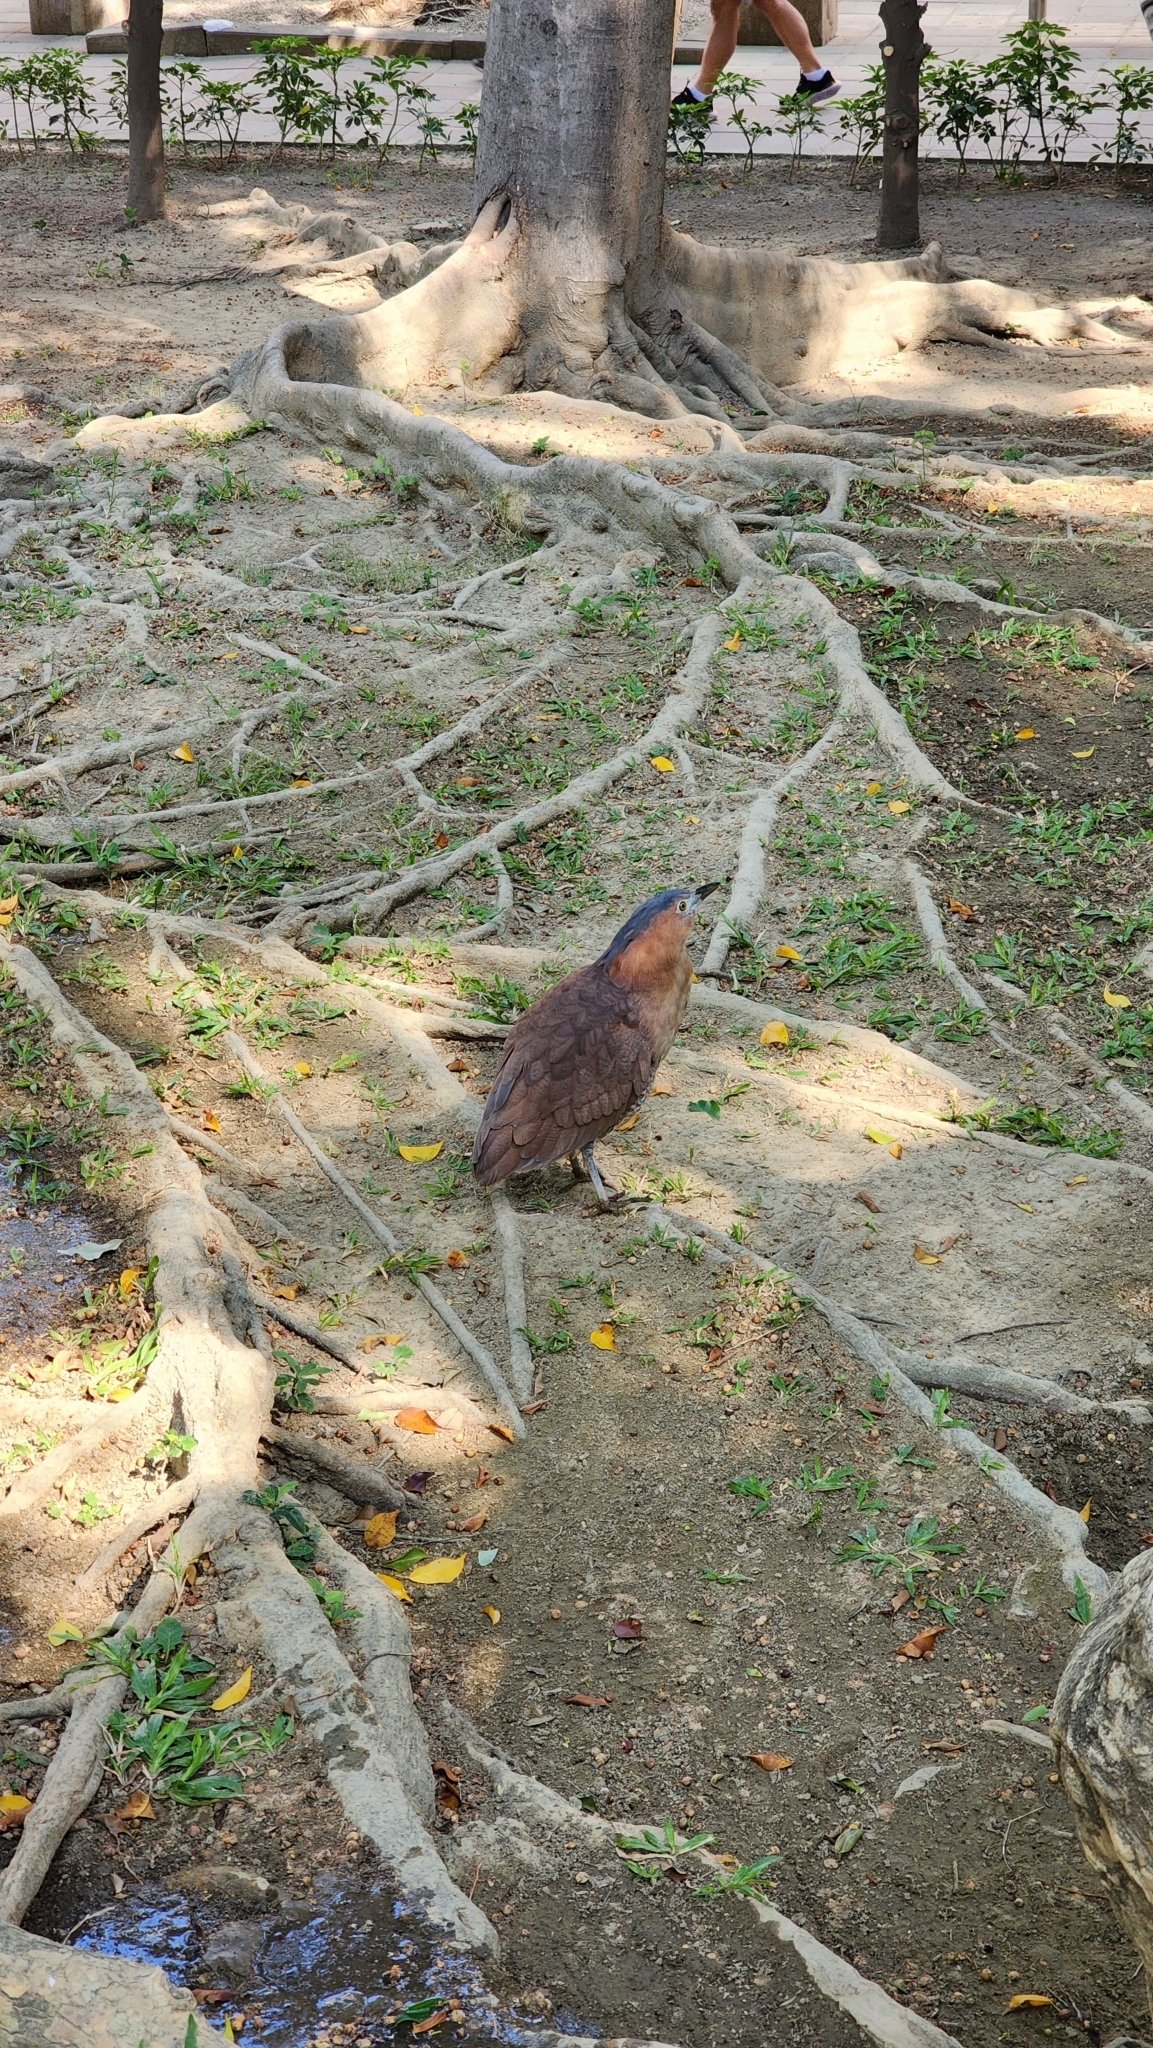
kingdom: Animalia
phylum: Chordata
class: Aves
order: Pelecaniformes
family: Ardeidae
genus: Gorsachius
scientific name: Gorsachius melanolophus
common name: Malayan night heron
